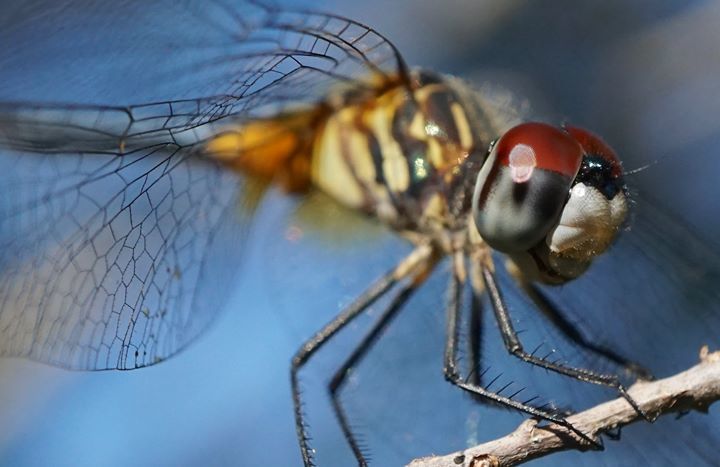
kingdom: Animalia
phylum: Arthropoda
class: Insecta
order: Odonata
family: Libellulidae
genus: Pachydiplax
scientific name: Pachydiplax longipennis
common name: Blue dasher
